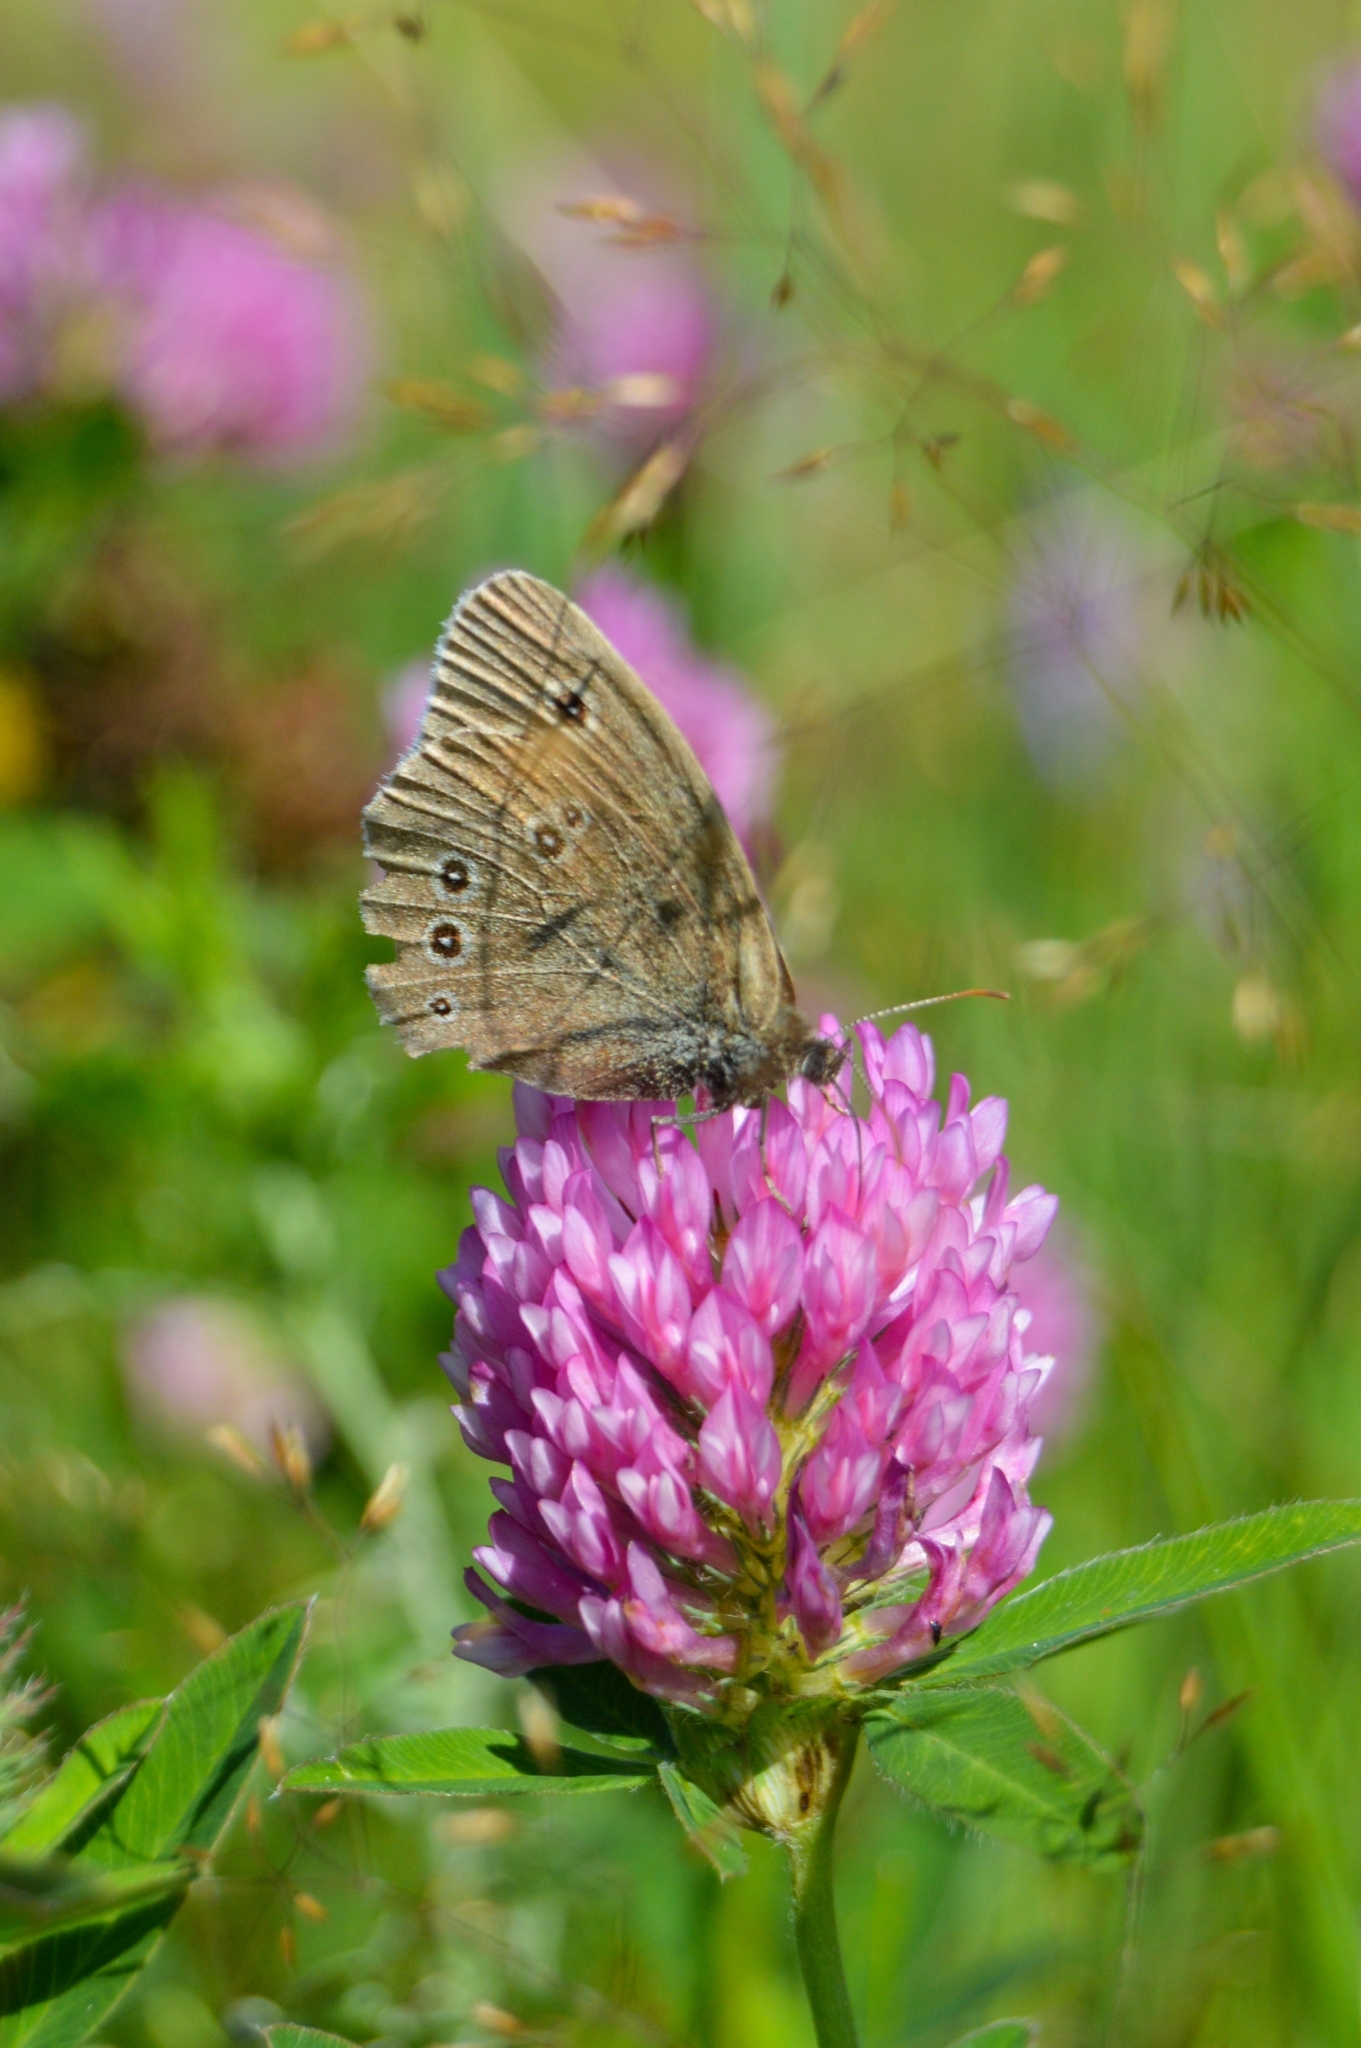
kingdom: Animalia
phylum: Arthropoda
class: Insecta
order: Lepidoptera
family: Nymphalidae
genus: Aphantopus
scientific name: Aphantopus hyperantus
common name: Ringlet
